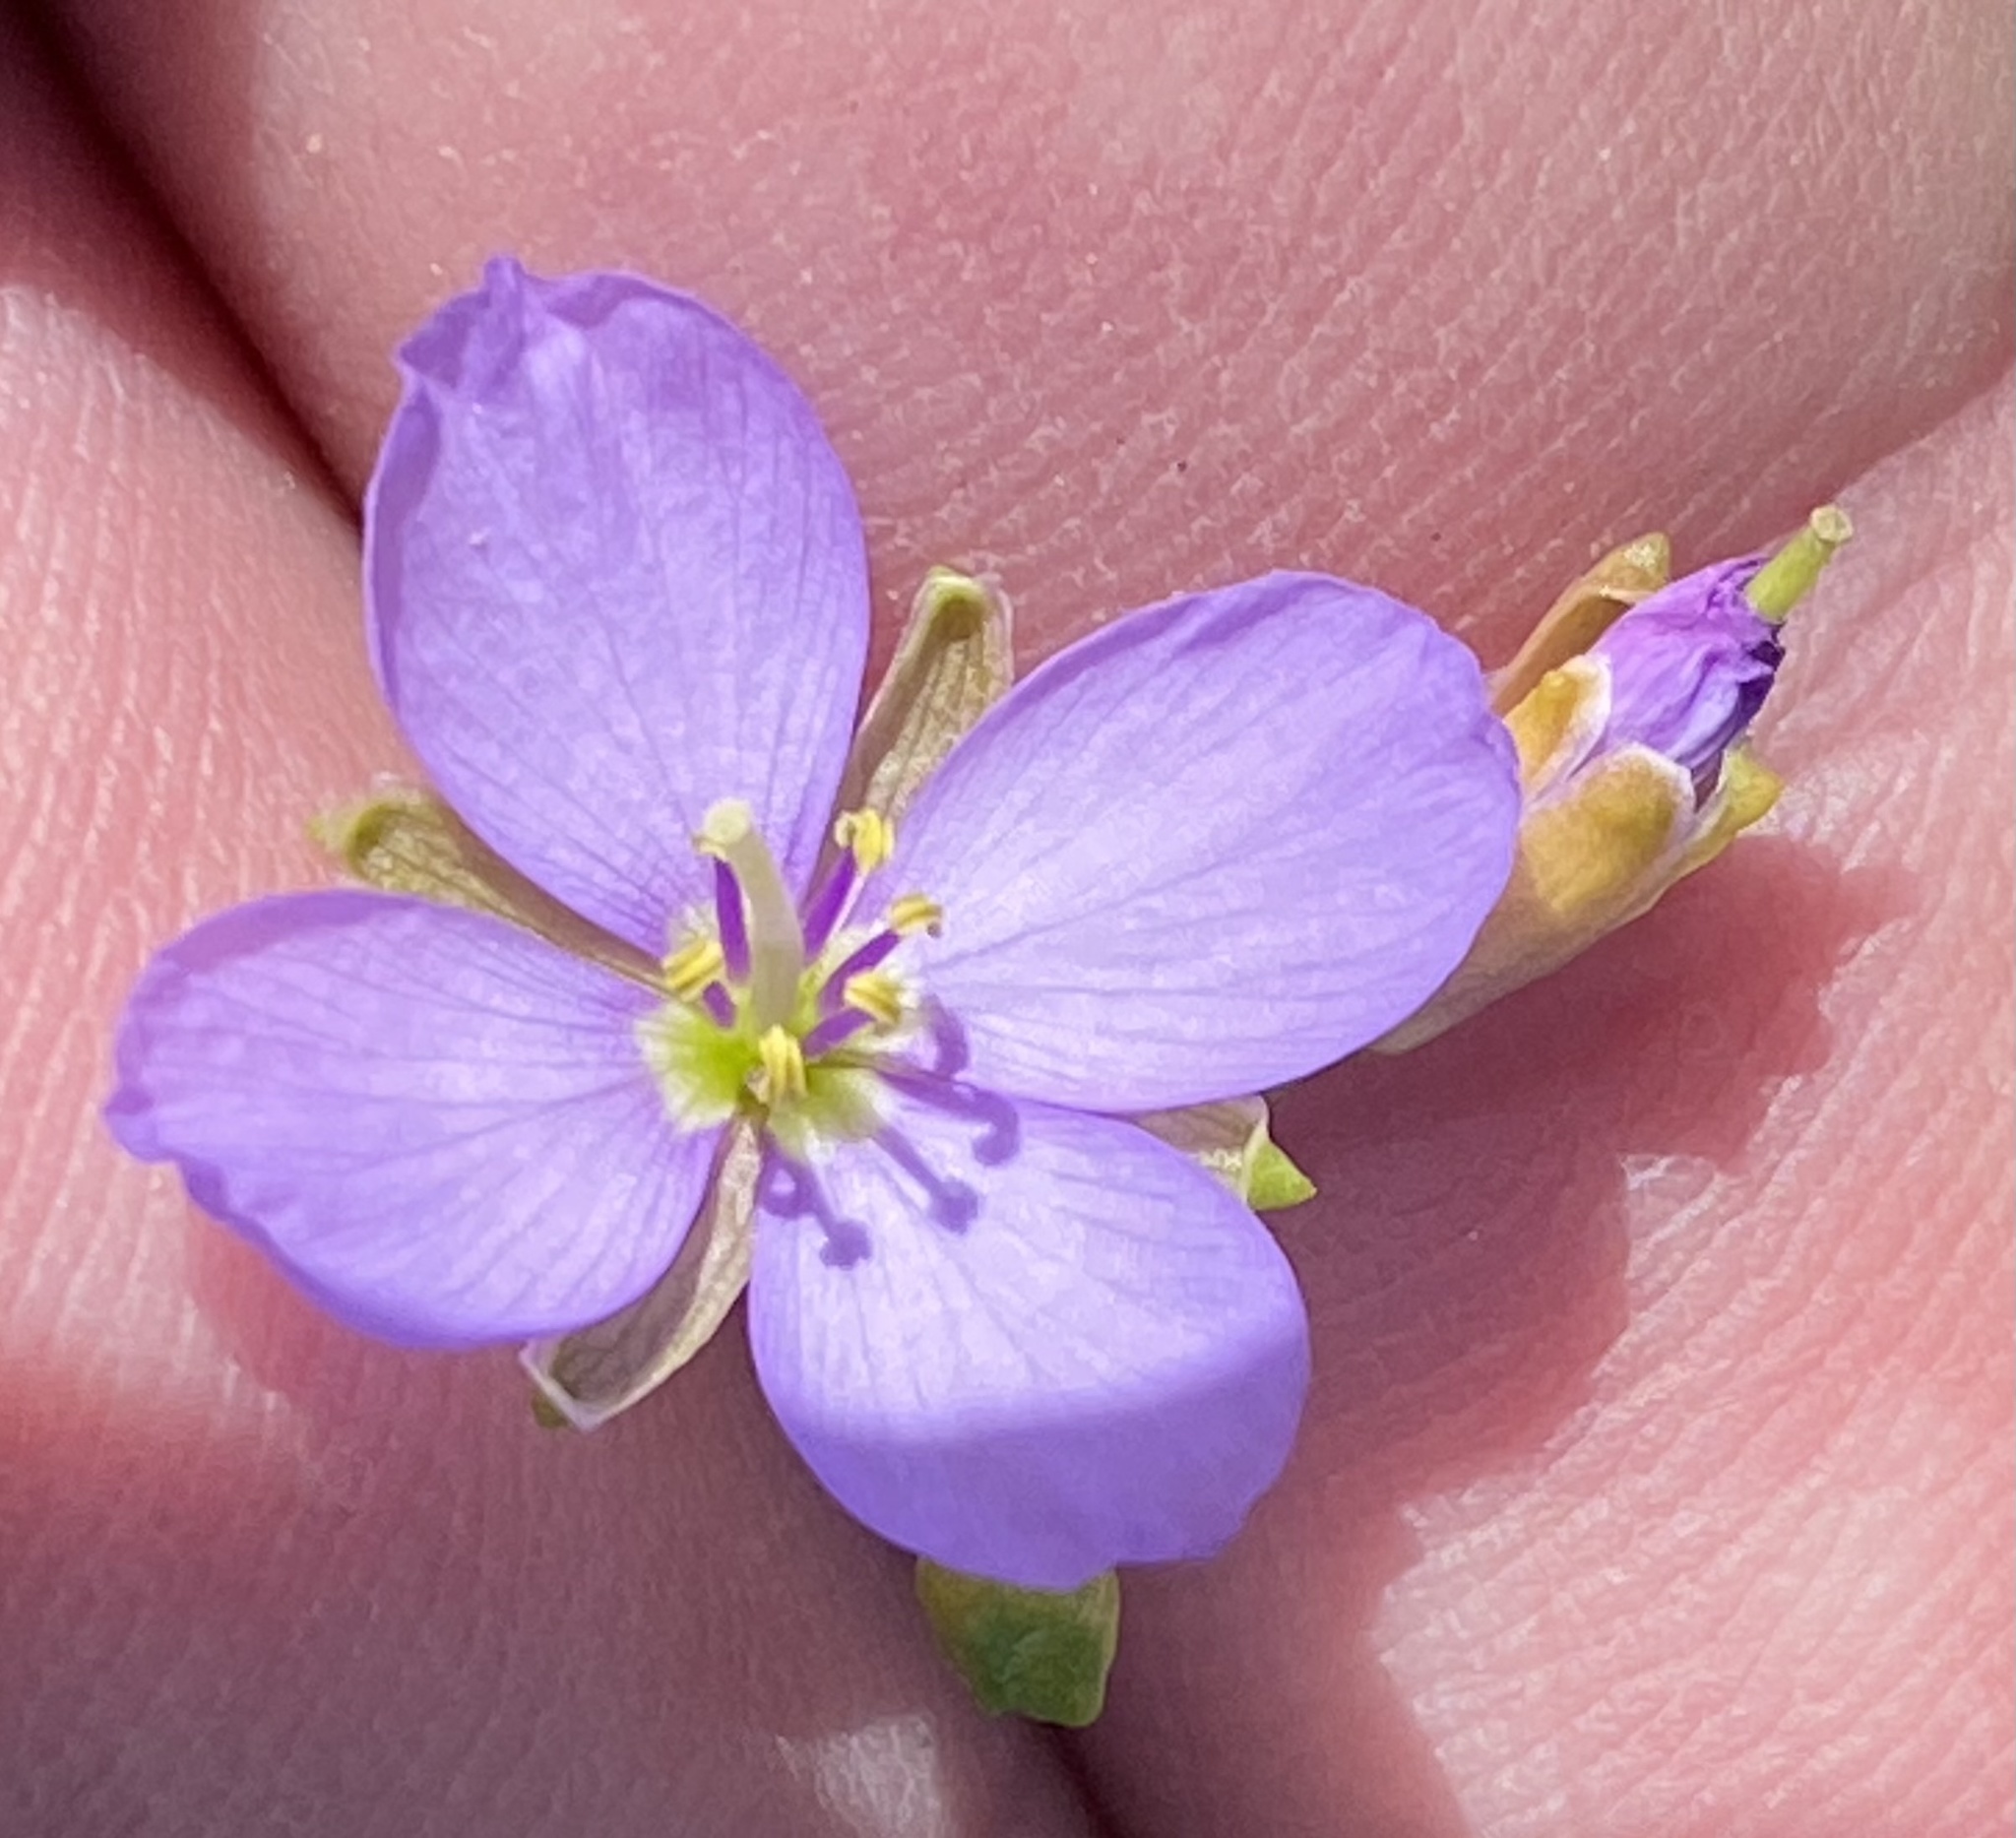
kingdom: Plantae
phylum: Tracheophyta
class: Magnoliopsida
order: Brassicales
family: Brassicaceae
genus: Heliophila
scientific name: Heliophila subulata
